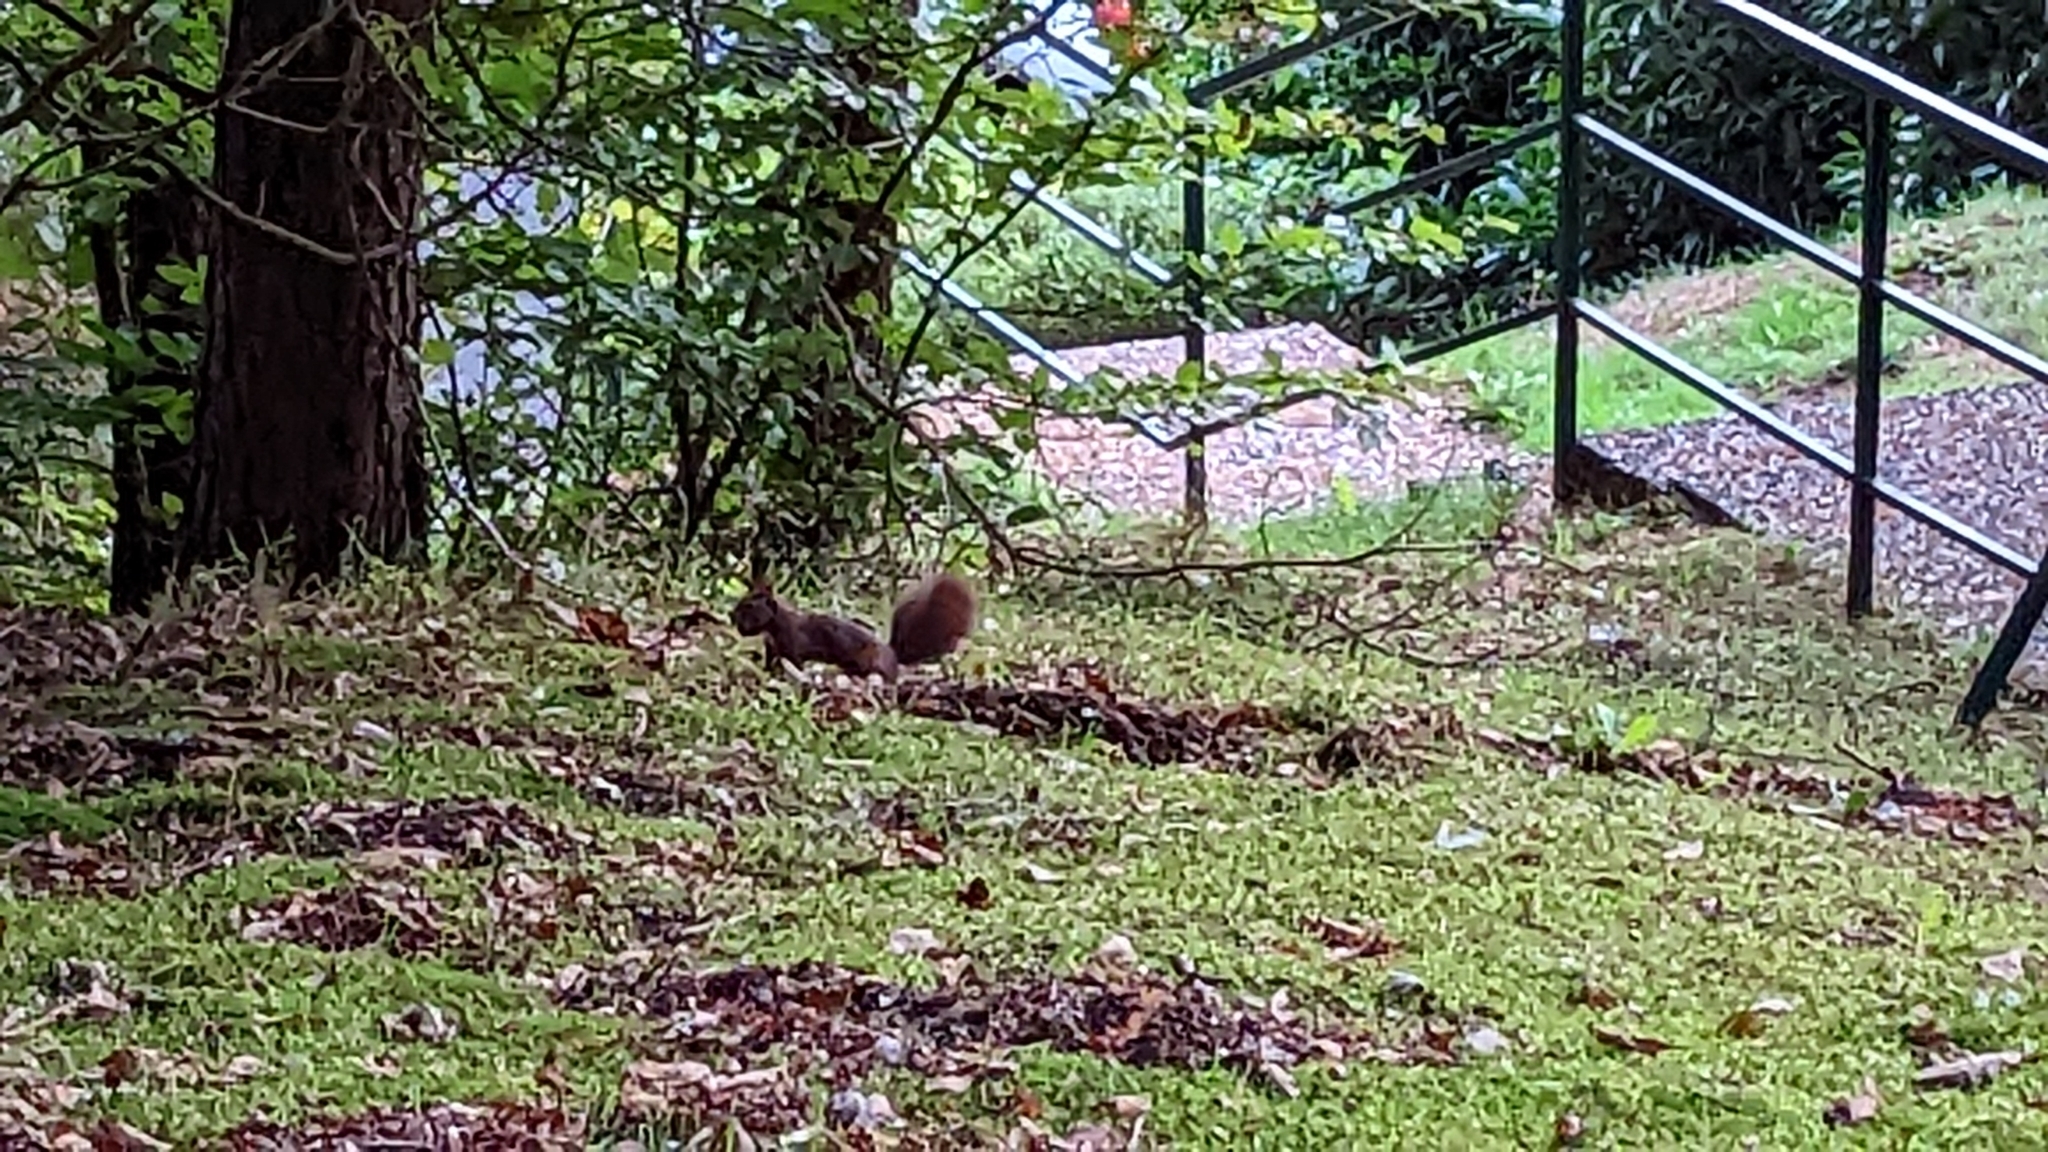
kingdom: Animalia
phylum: Chordata
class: Mammalia
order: Rodentia
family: Sciuridae
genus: Sciurus
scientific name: Sciurus vulgaris
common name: Eurasian red squirrel
